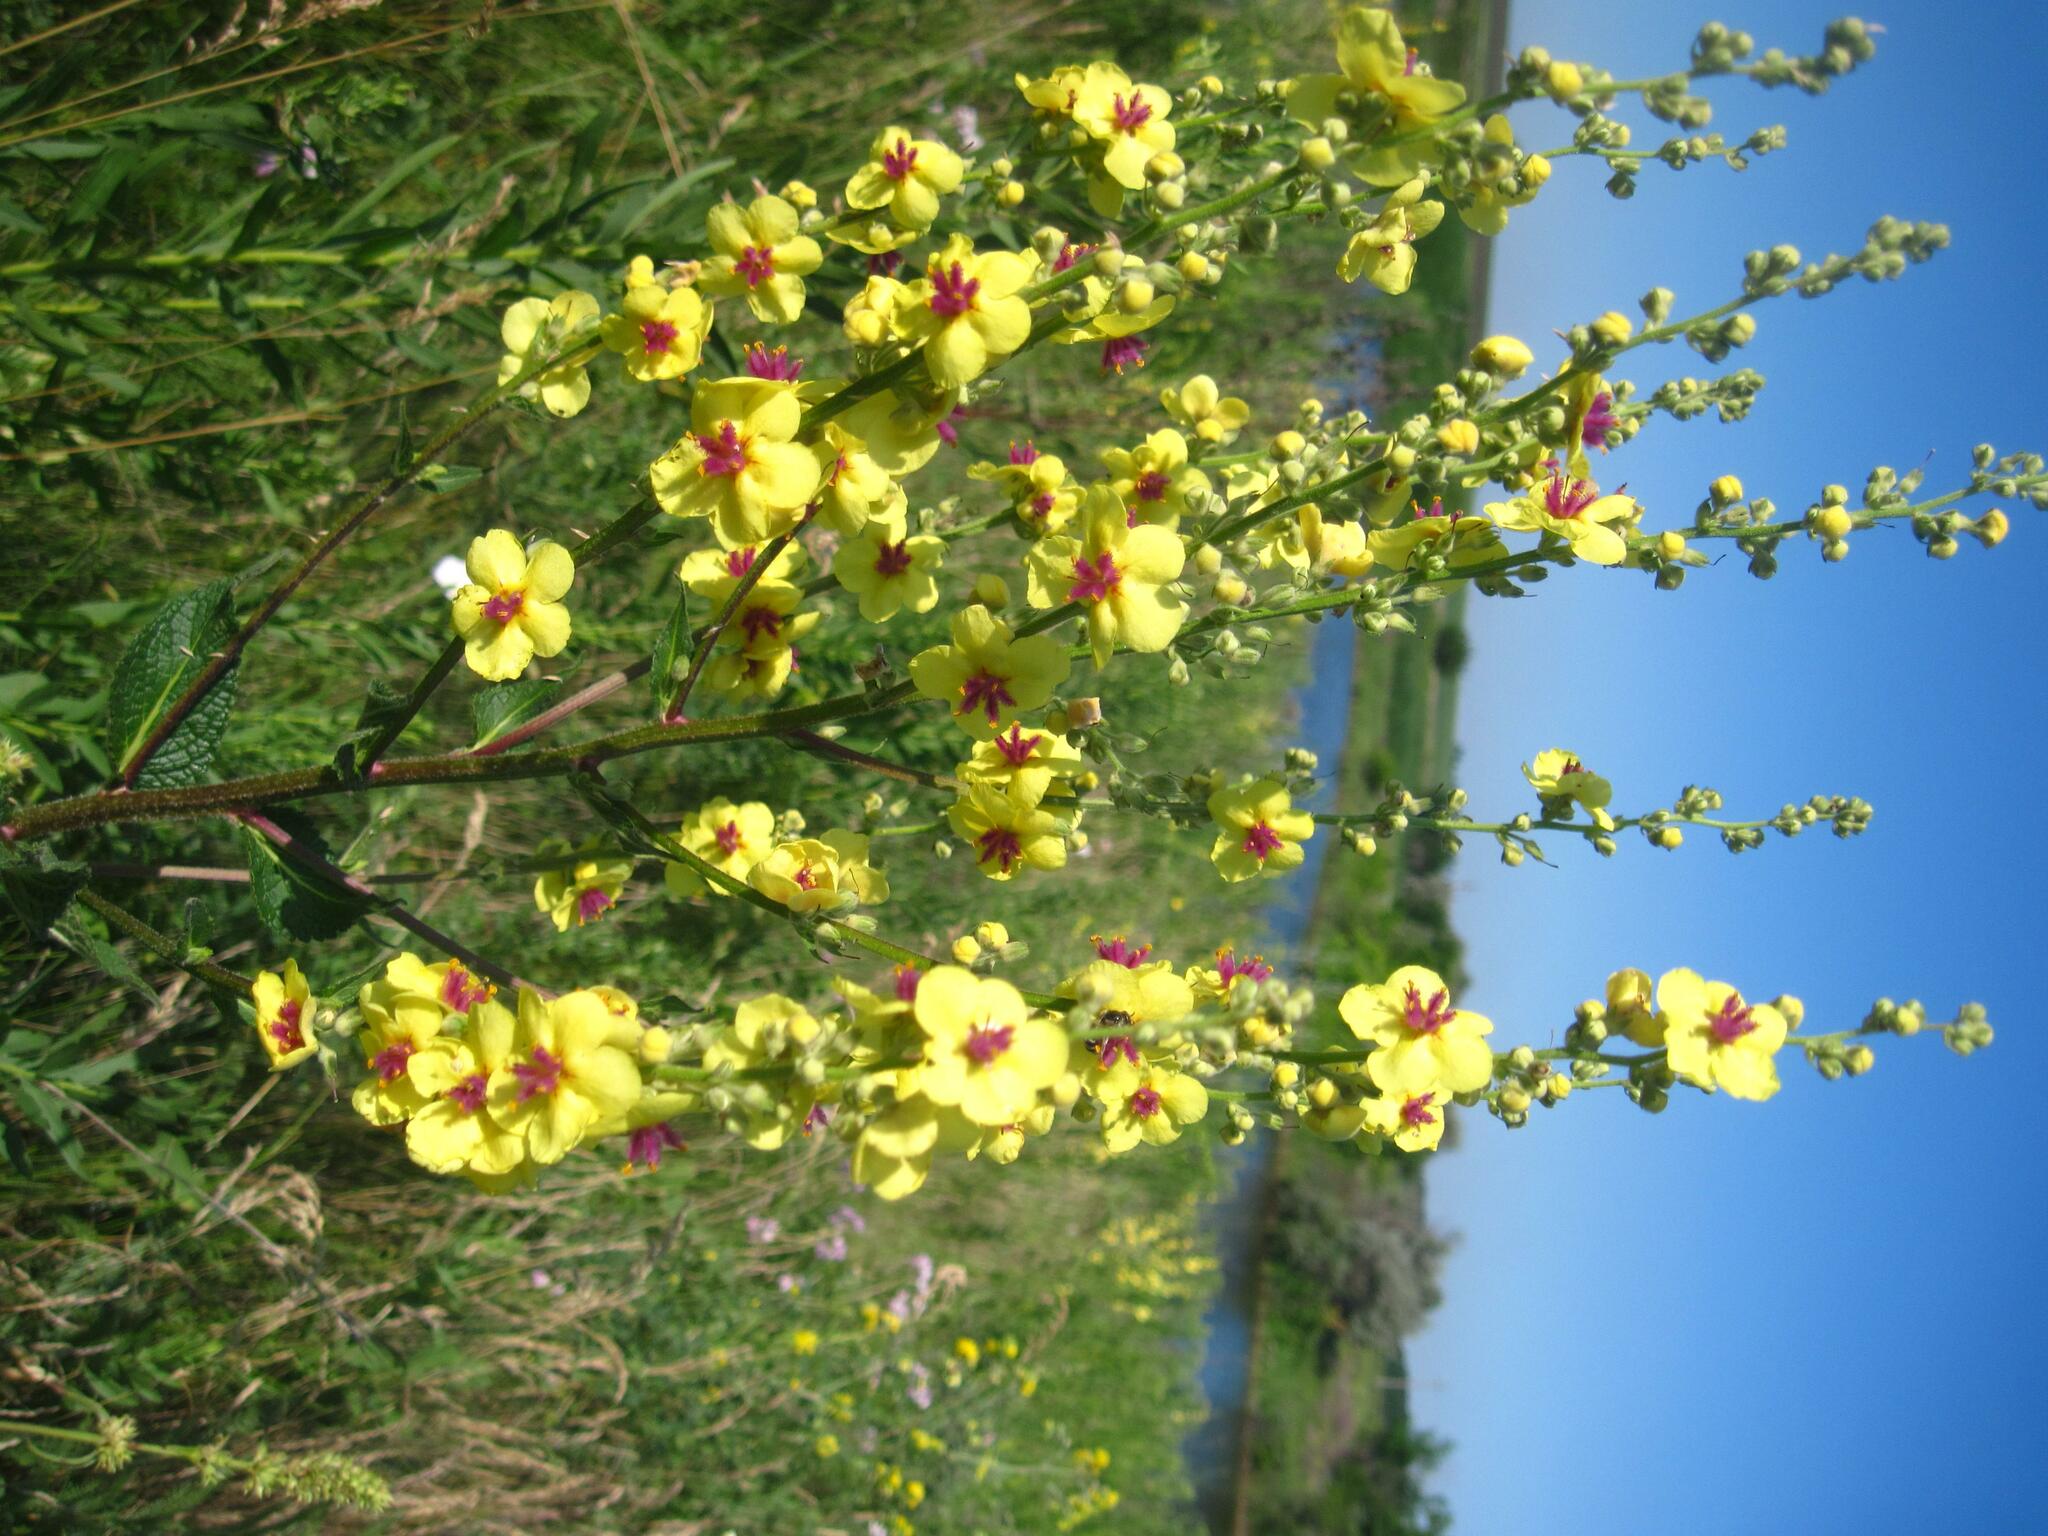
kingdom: Plantae
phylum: Tracheophyta
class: Magnoliopsida
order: Lamiales
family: Scrophulariaceae
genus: Verbascum
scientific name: Verbascum chaixii
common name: Nettle-leaved mullein
